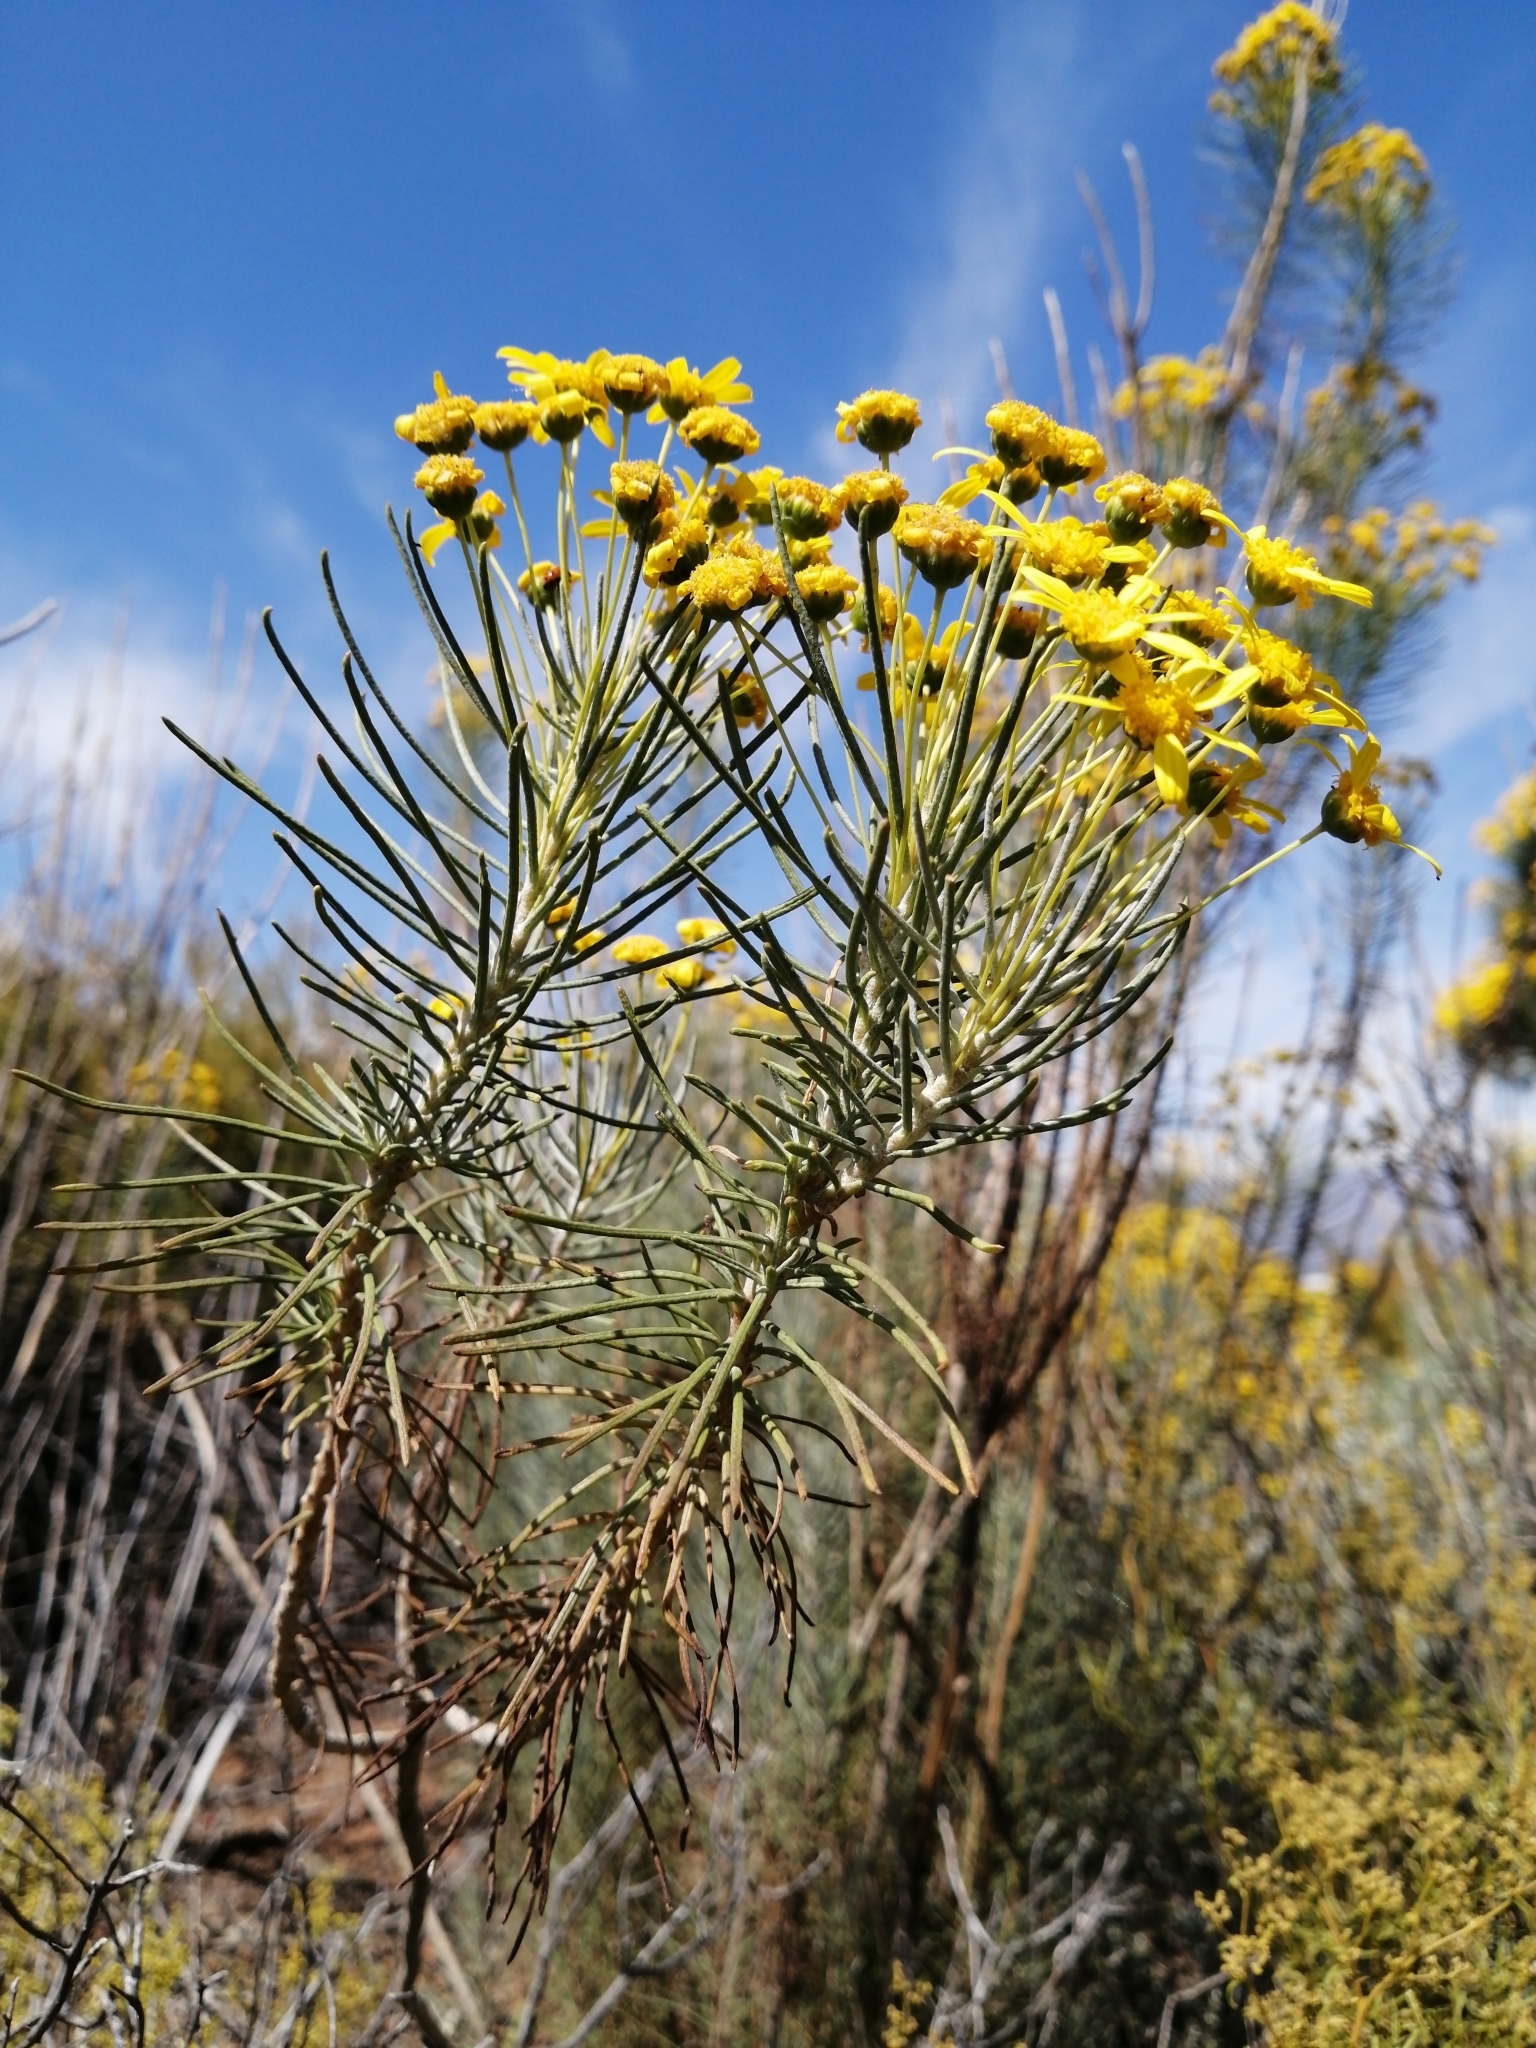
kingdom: Plantae
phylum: Tracheophyta
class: Magnoliopsida
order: Asterales
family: Asteraceae
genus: Euryops
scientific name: Euryops tenuissimus
